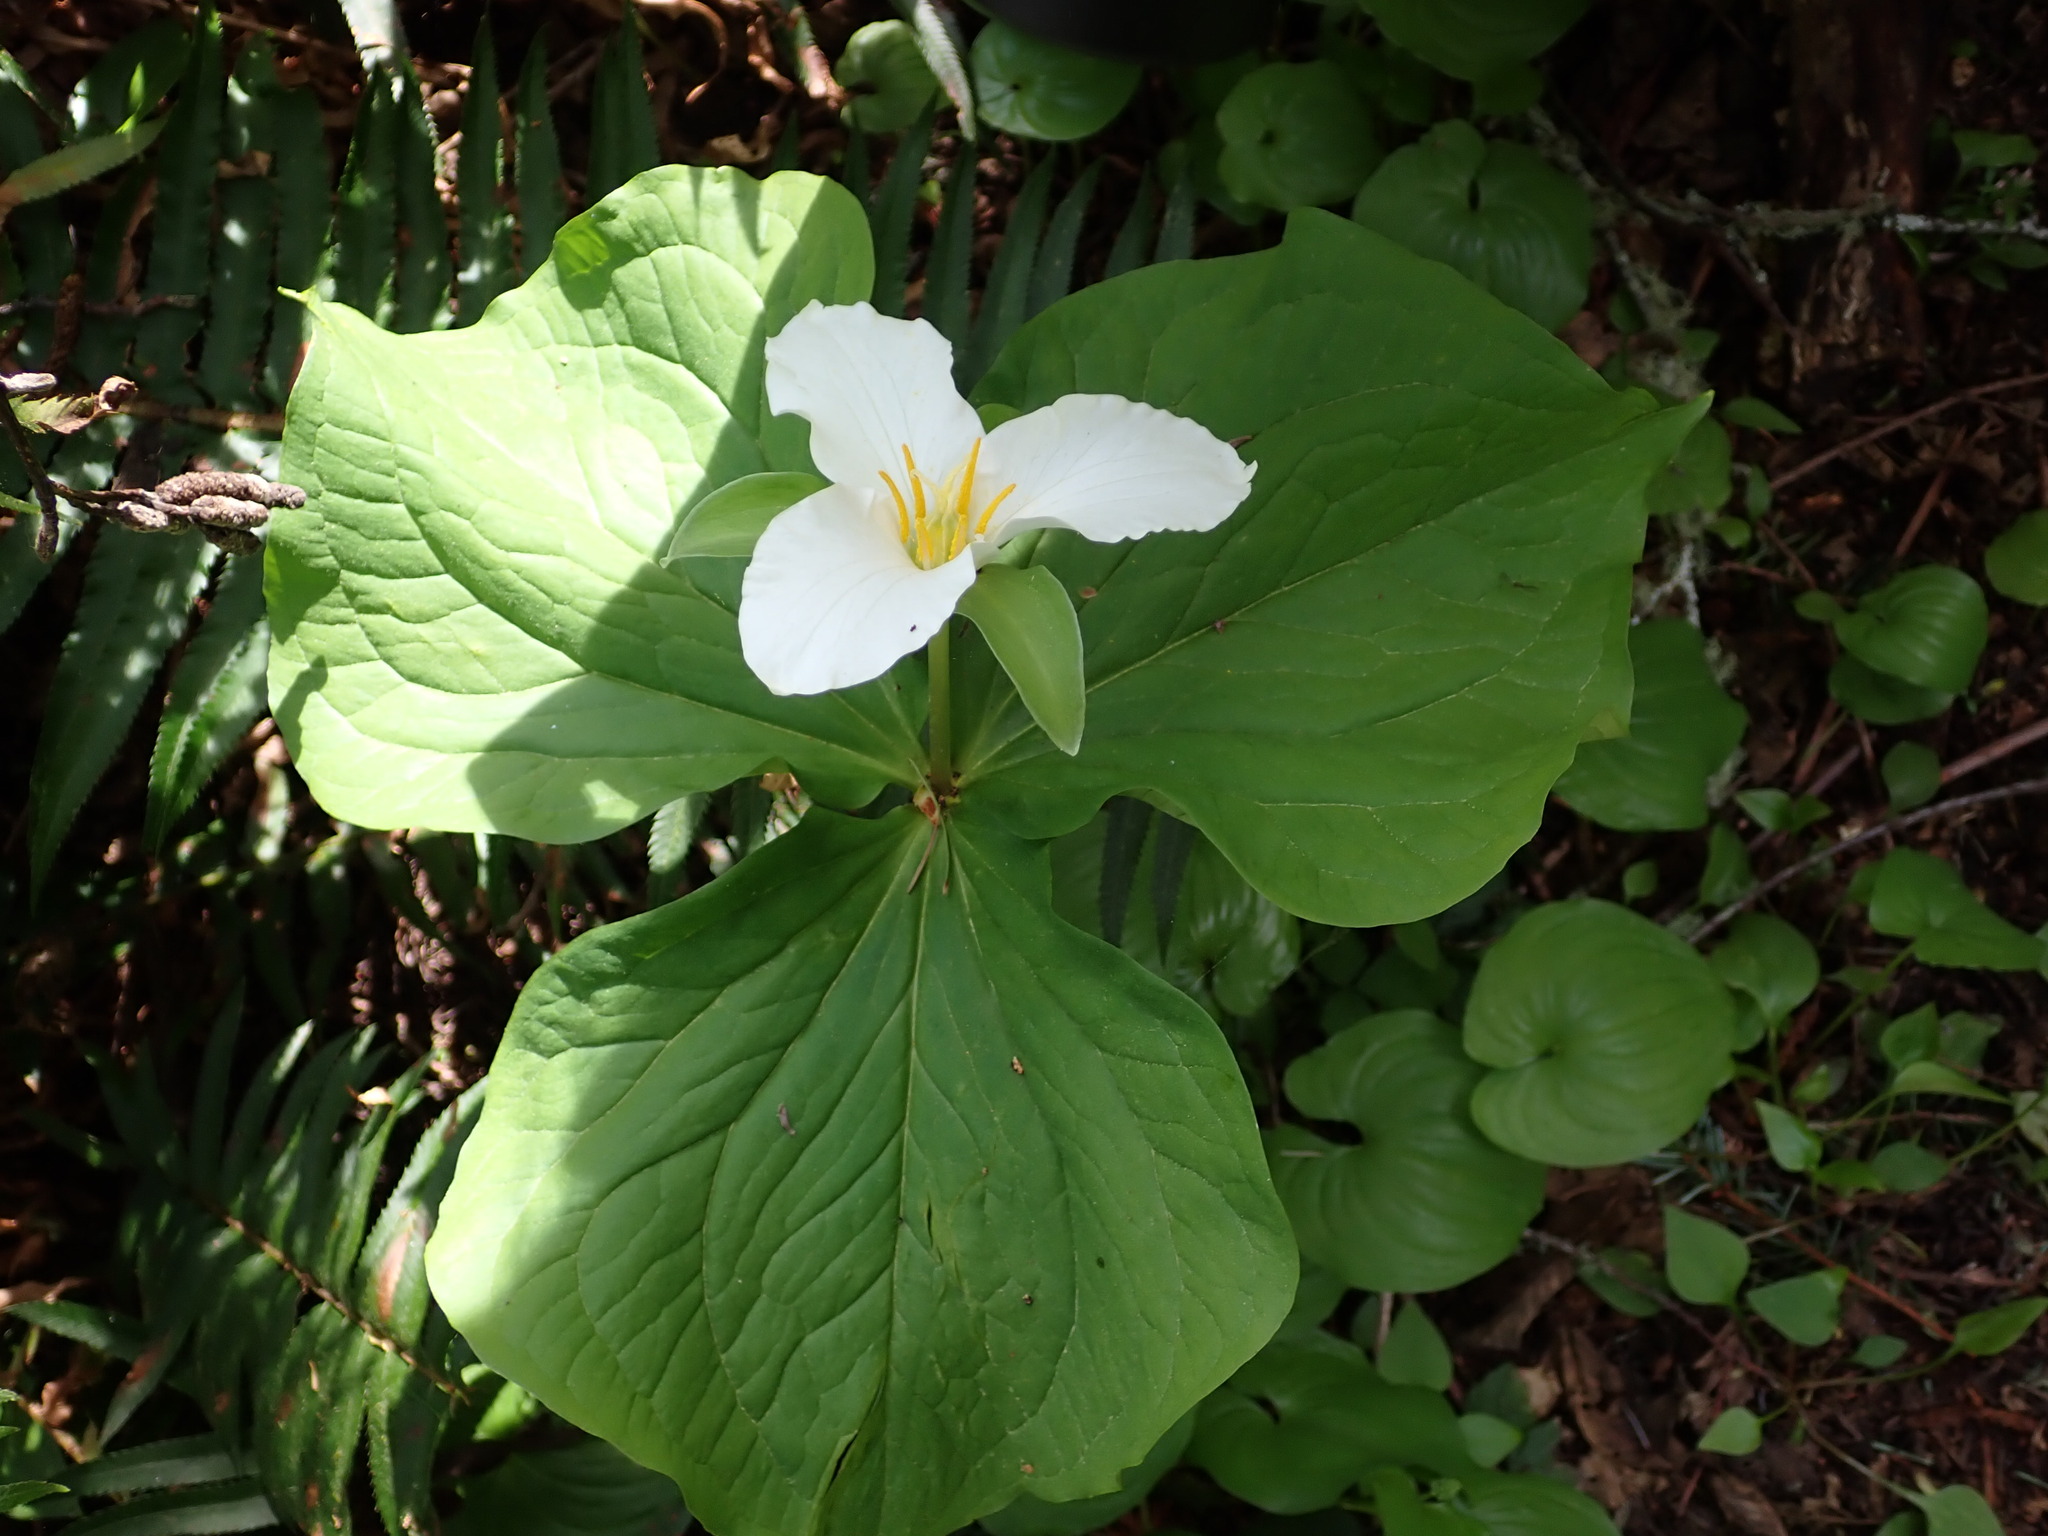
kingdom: Plantae
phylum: Tracheophyta
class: Liliopsida
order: Liliales
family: Melanthiaceae
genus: Trillium
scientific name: Trillium ovatum
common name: Pacific trillium
